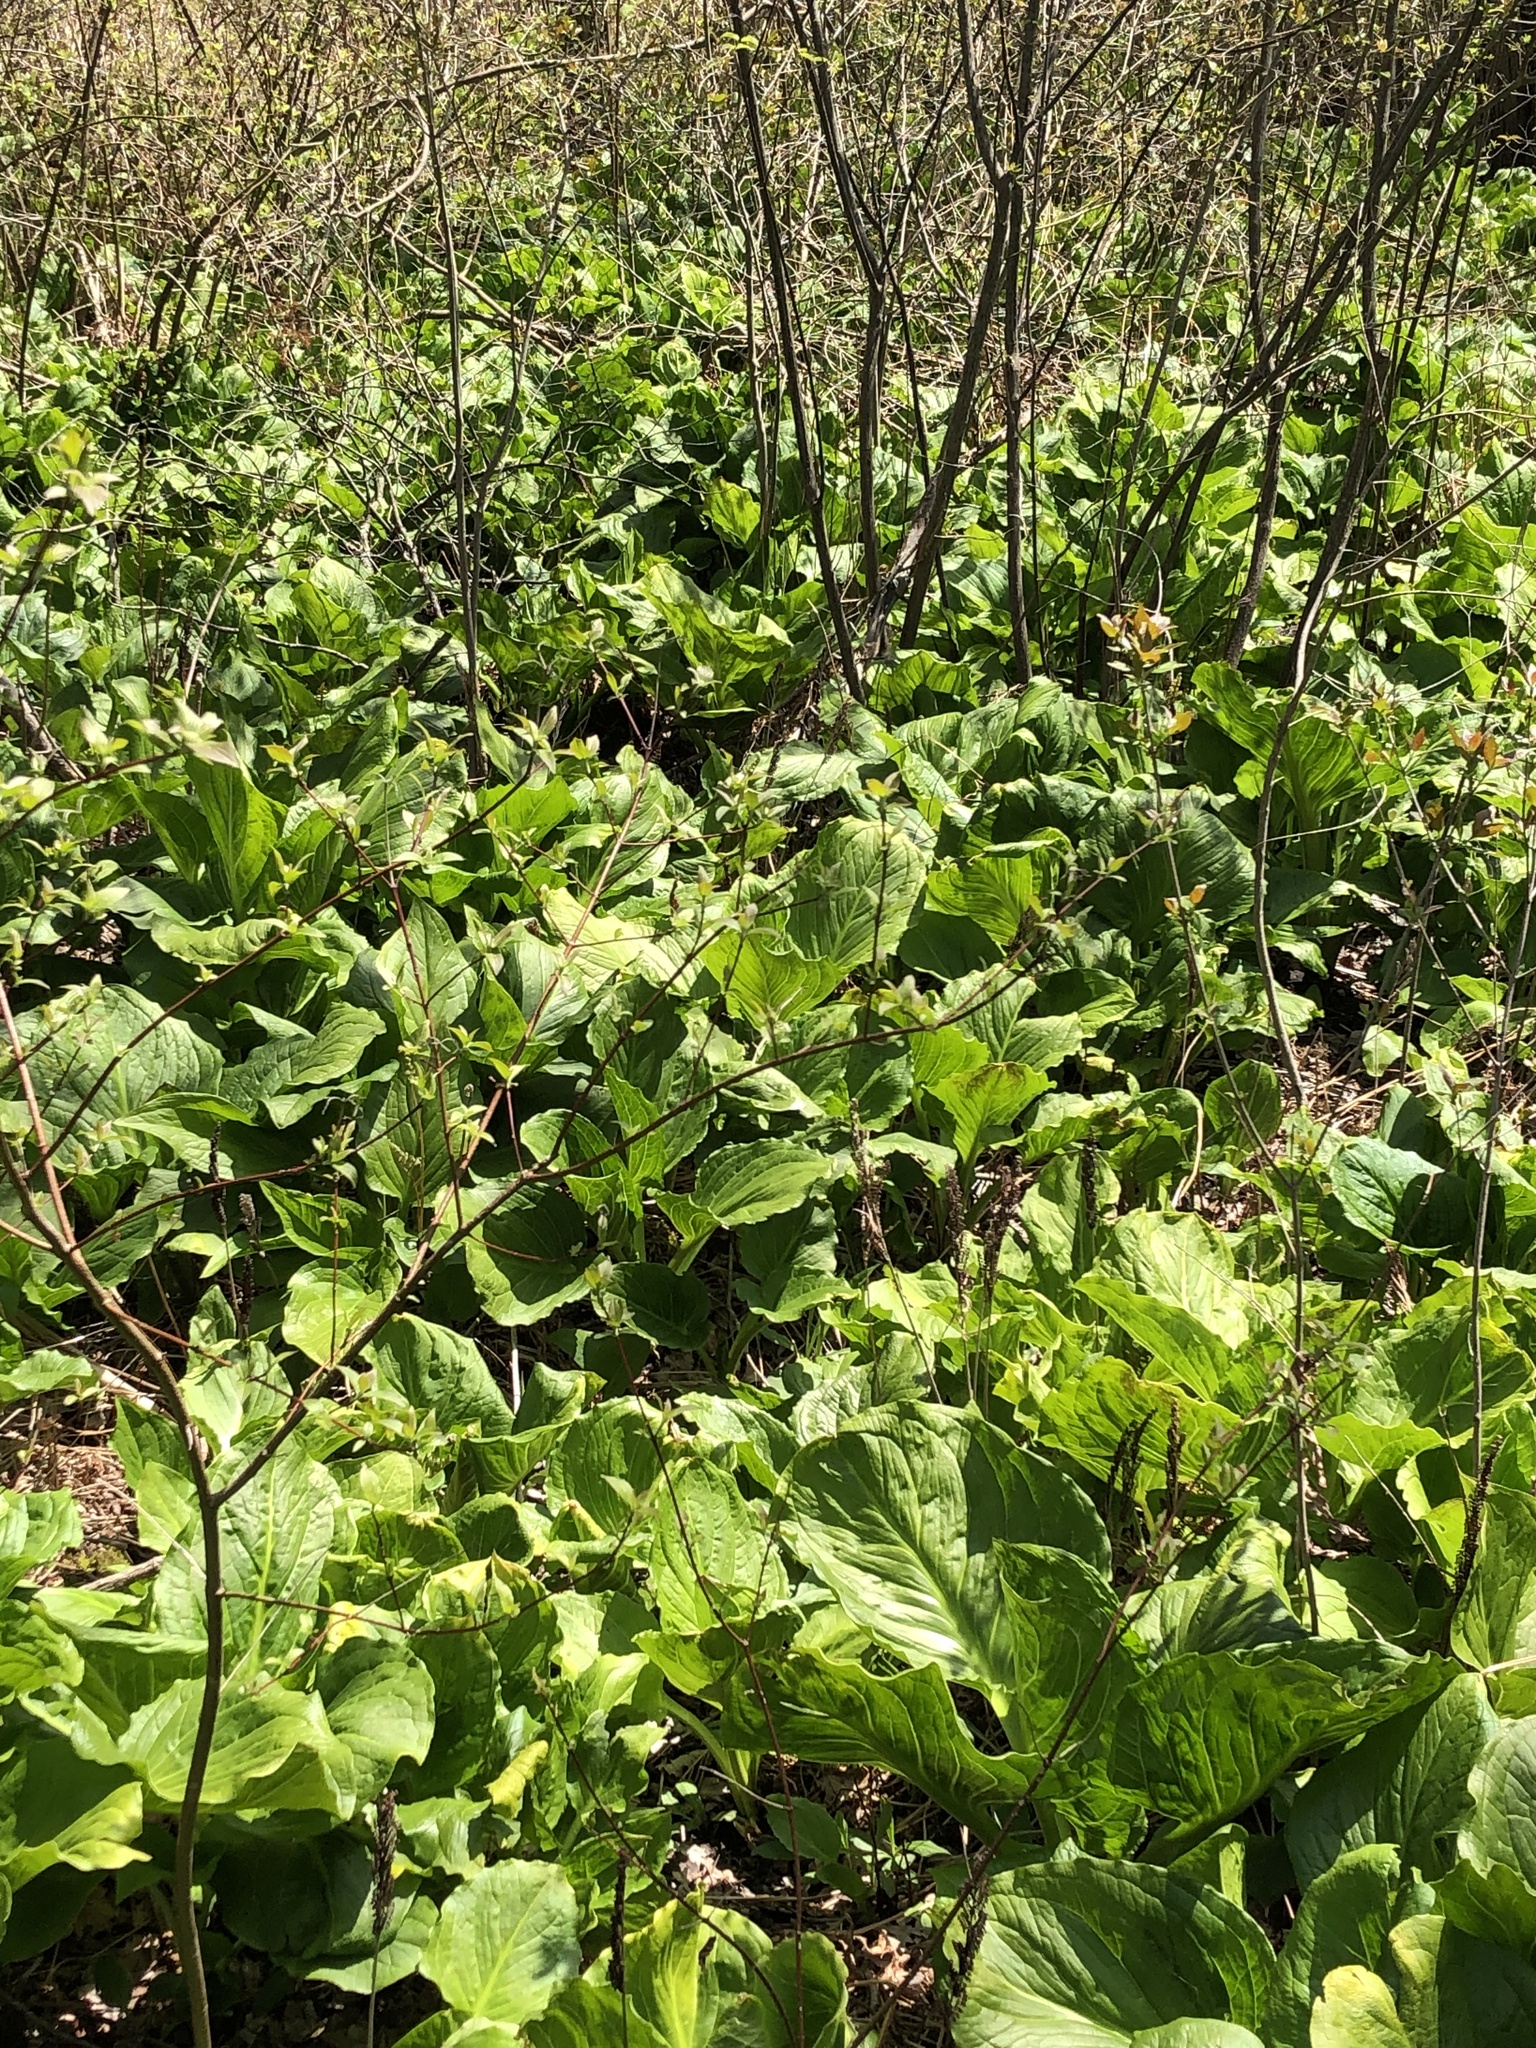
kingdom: Plantae
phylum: Tracheophyta
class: Liliopsida
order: Alismatales
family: Araceae
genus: Symplocarpus
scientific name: Symplocarpus foetidus
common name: Eastern skunk cabbage
